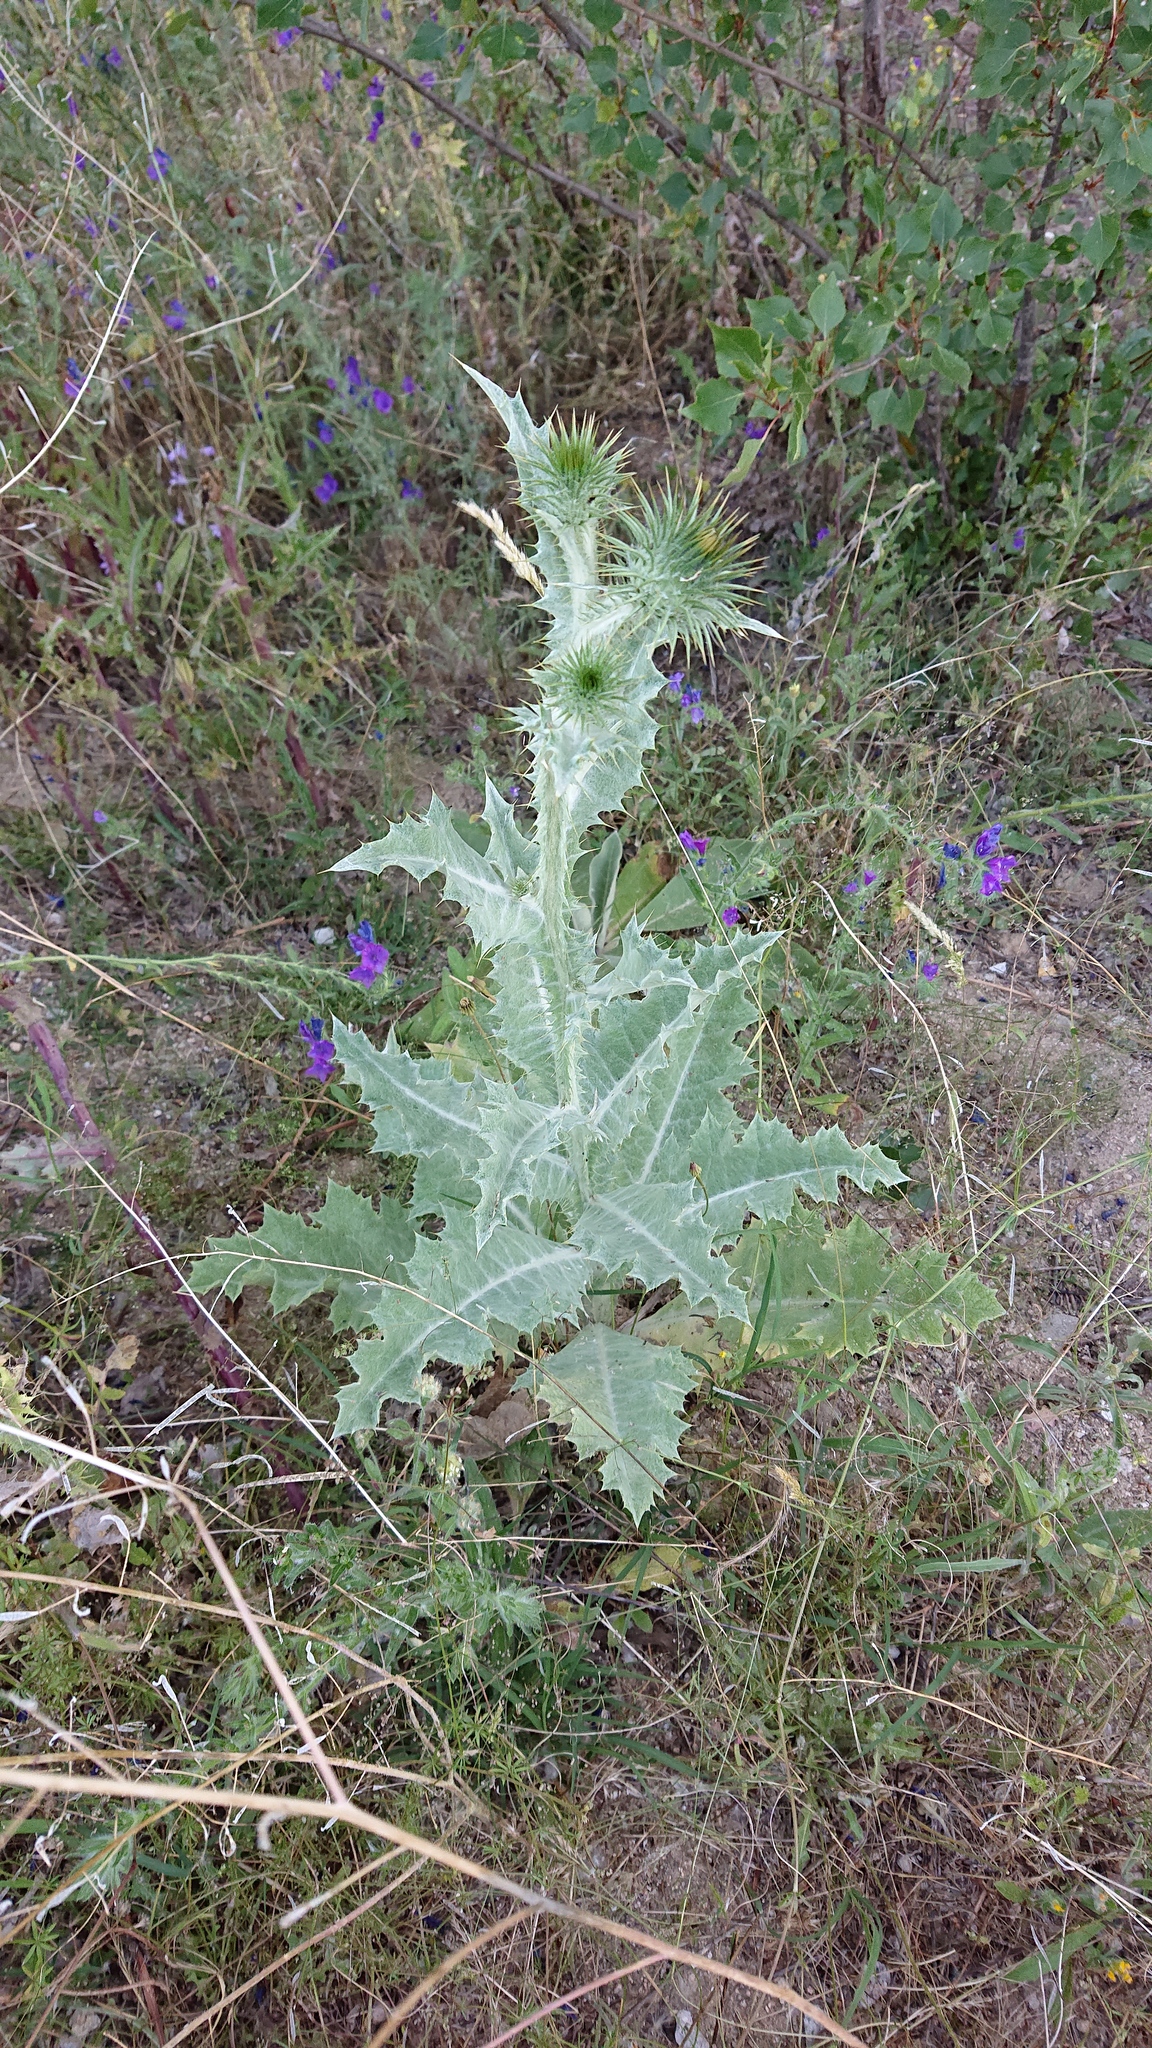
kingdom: Plantae
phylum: Tracheophyta
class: Magnoliopsida
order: Asterales
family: Asteraceae
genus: Onopordum
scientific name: Onopordum acanthium
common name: Scotch thistle
